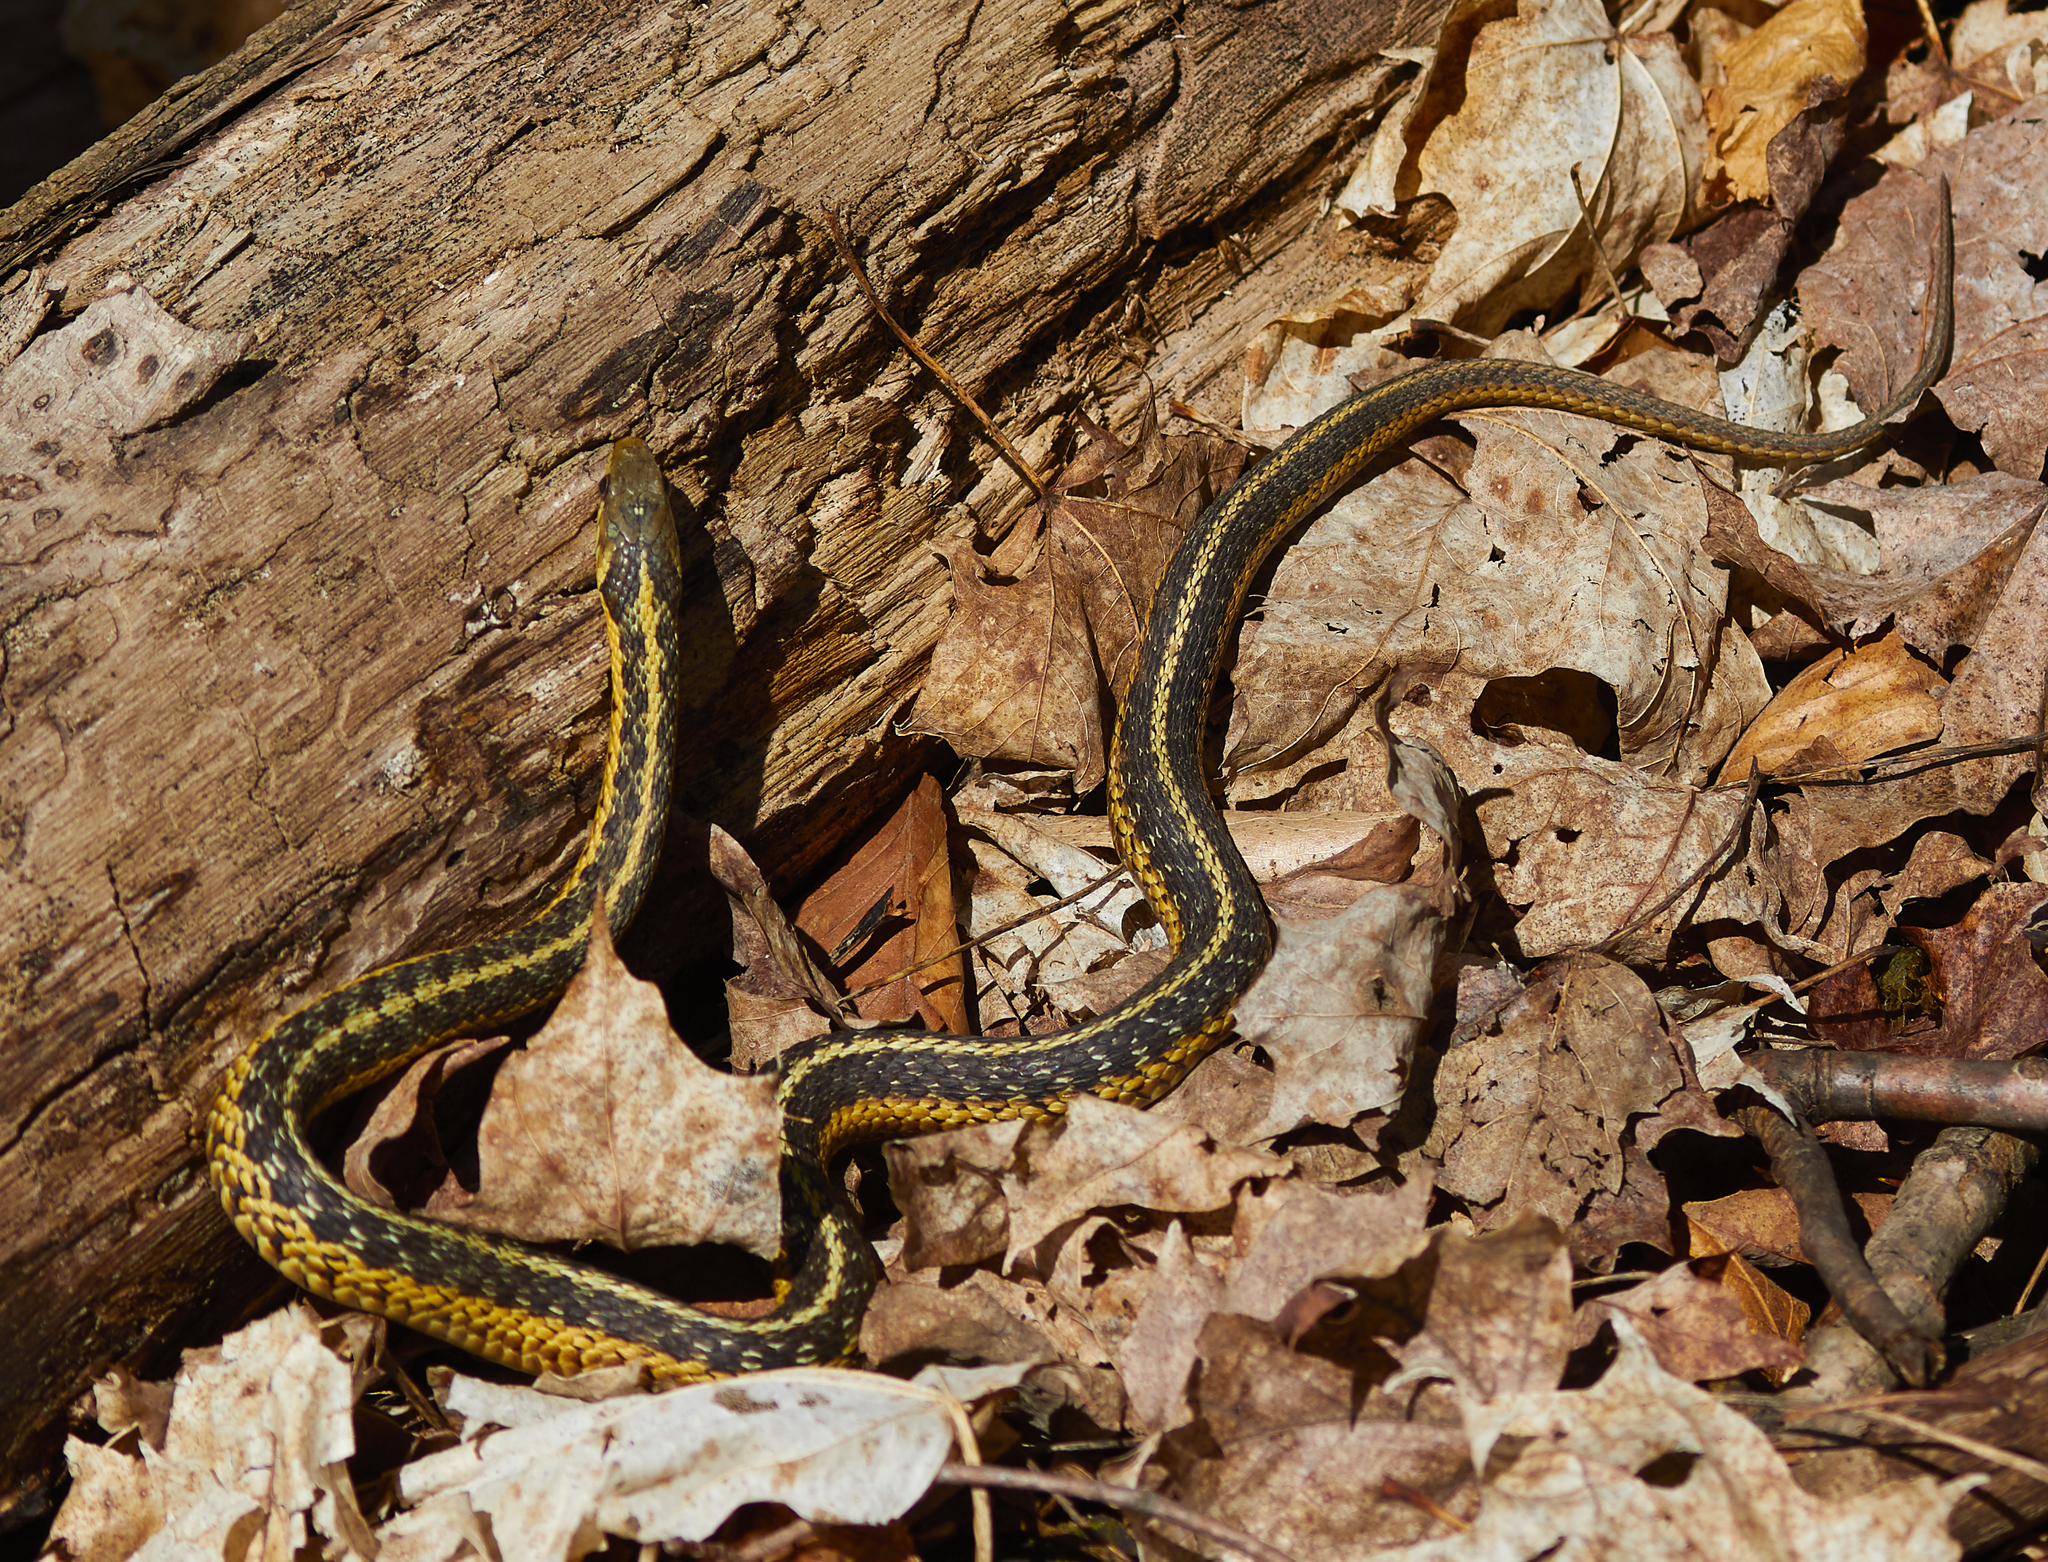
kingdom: Animalia
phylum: Chordata
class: Squamata
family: Colubridae
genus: Thamnophis
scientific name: Thamnophis sirtalis
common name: Common garter snake
